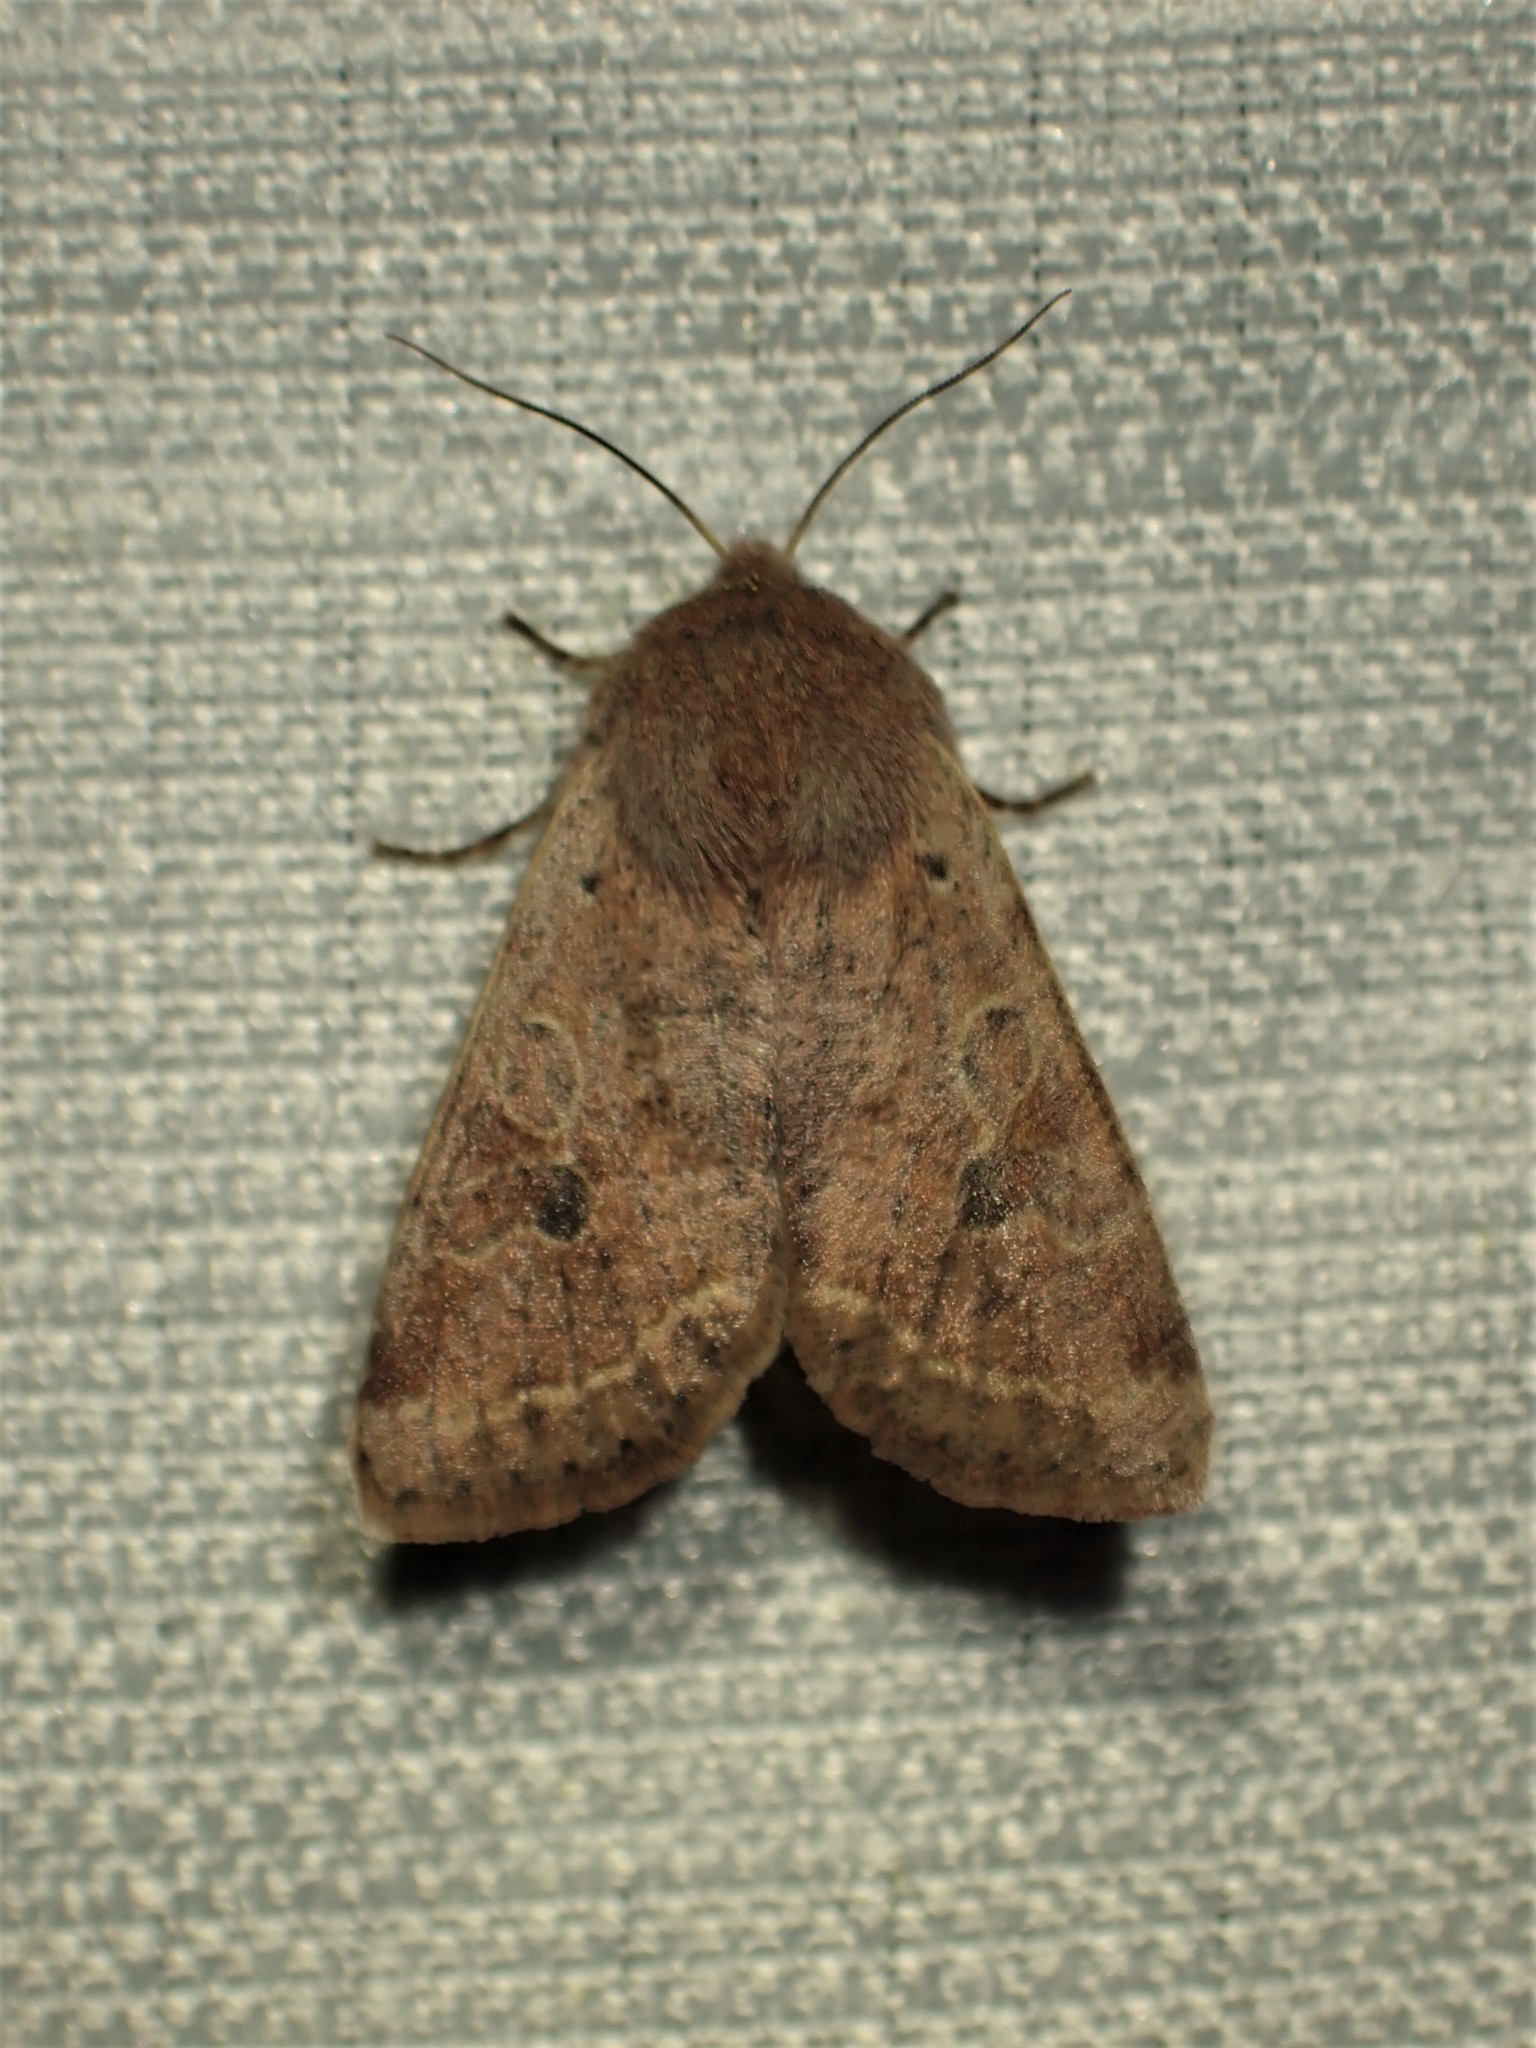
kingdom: Animalia
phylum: Arthropoda
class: Insecta
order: Lepidoptera
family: Noctuidae
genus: Orthosia
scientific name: Orthosia hibisci
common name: Green fruitworm
